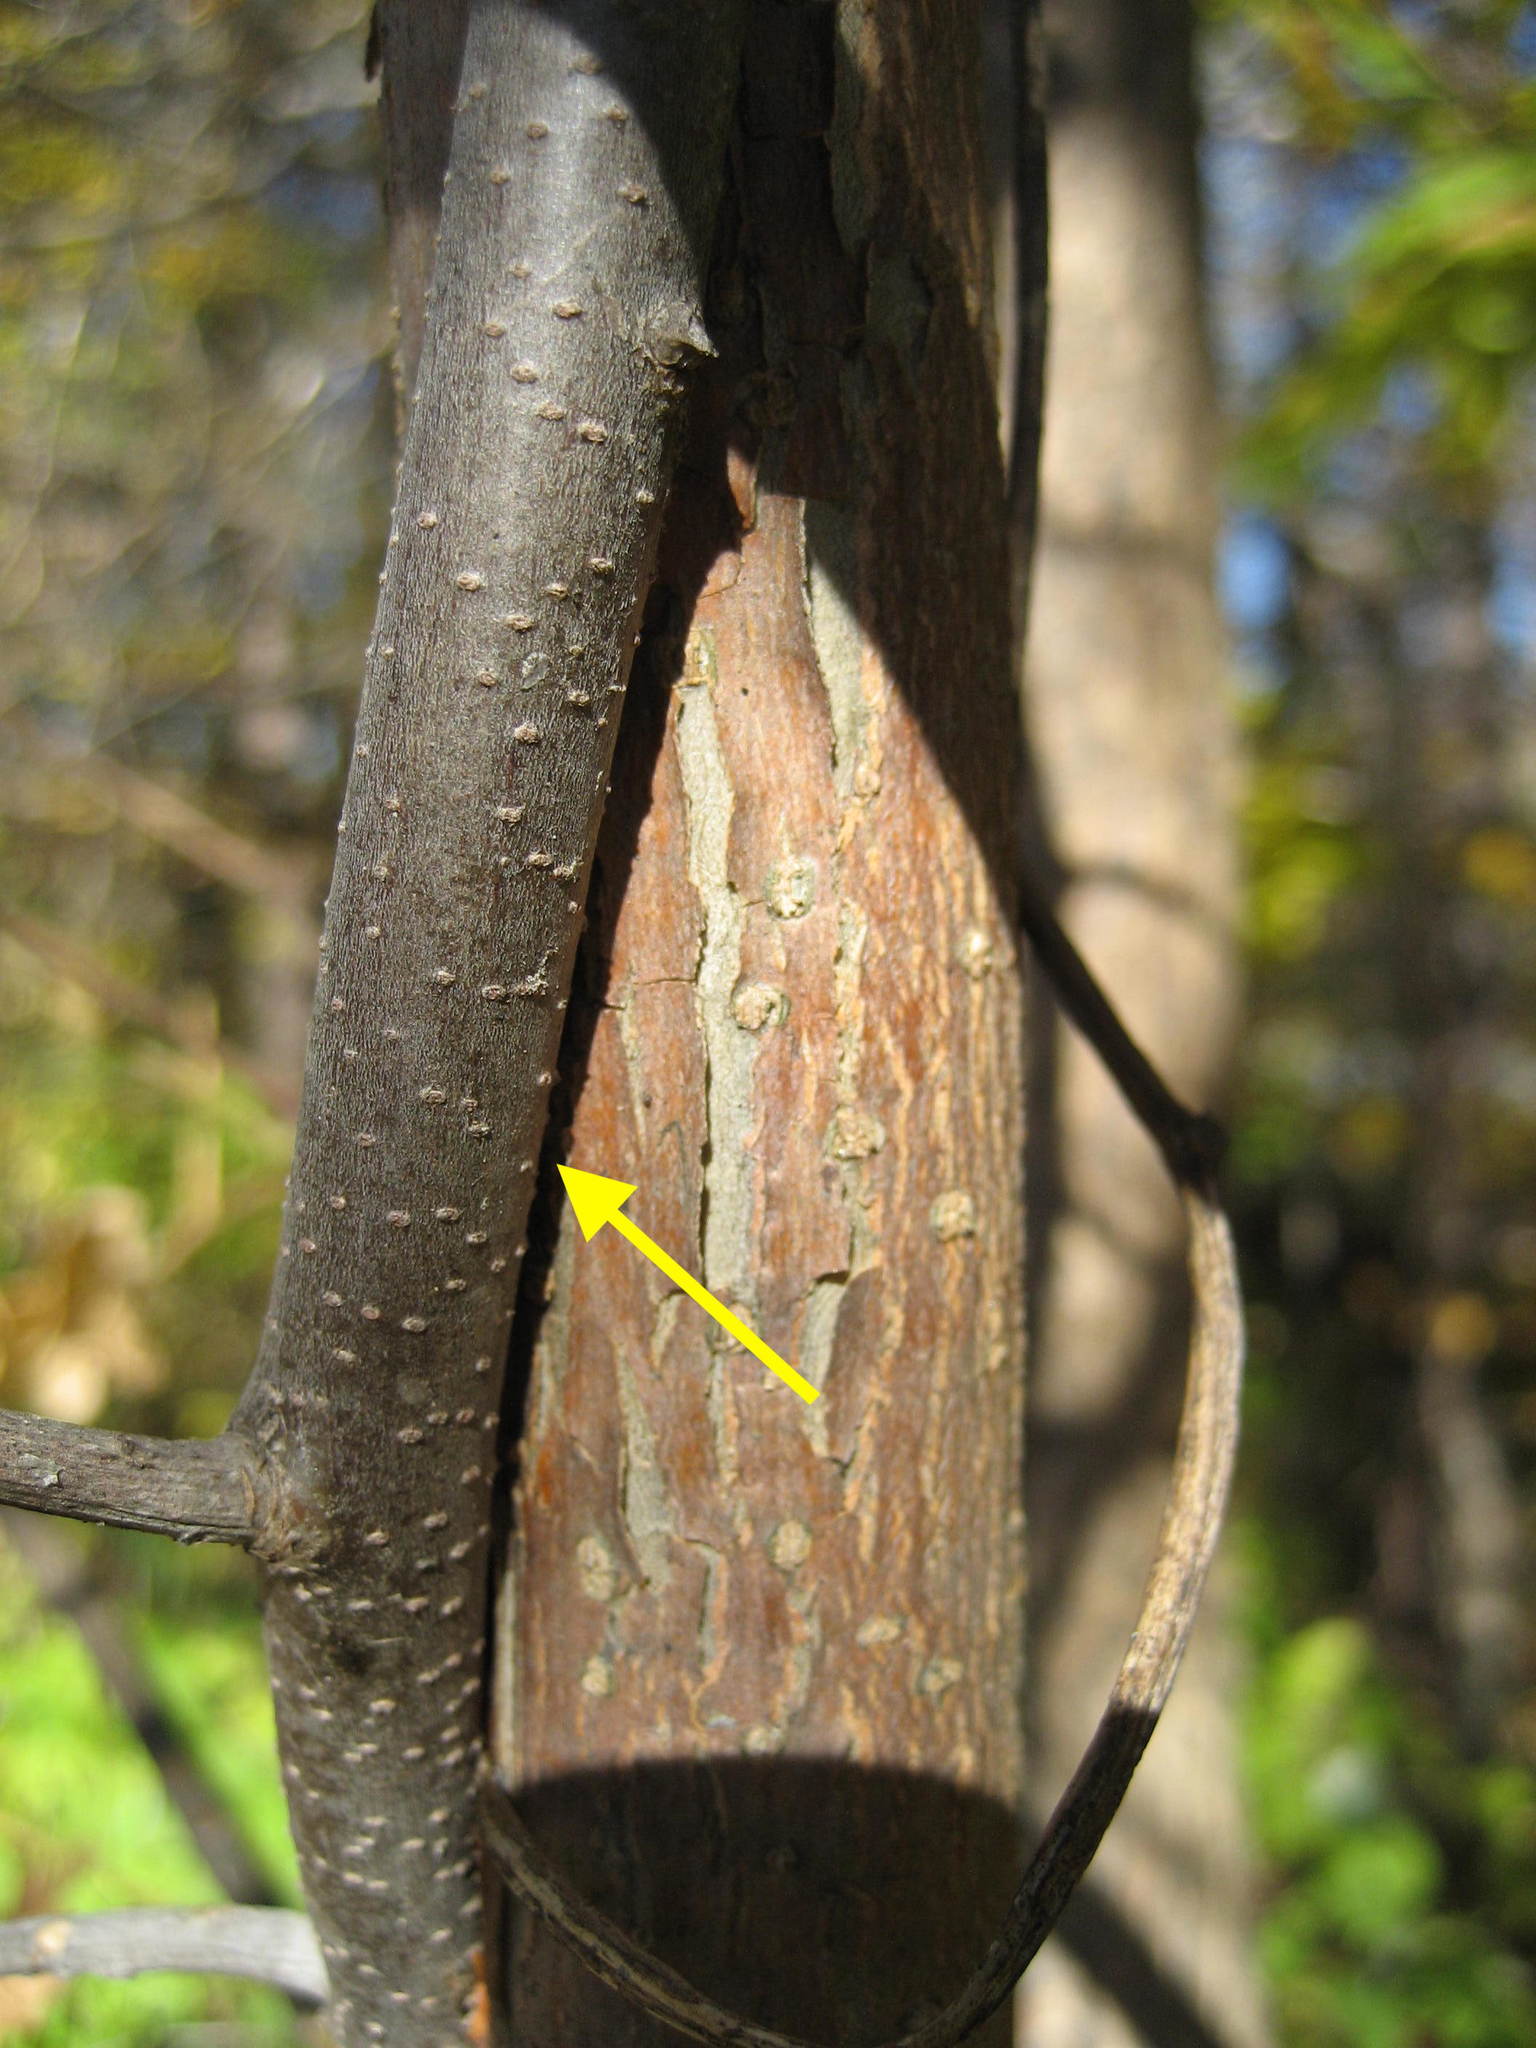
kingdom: Plantae
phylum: Tracheophyta
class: Magnoliopsida
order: Celastrales
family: Celastraceae
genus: Celastrus
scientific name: Celastrus scandens
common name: American bittersweet
